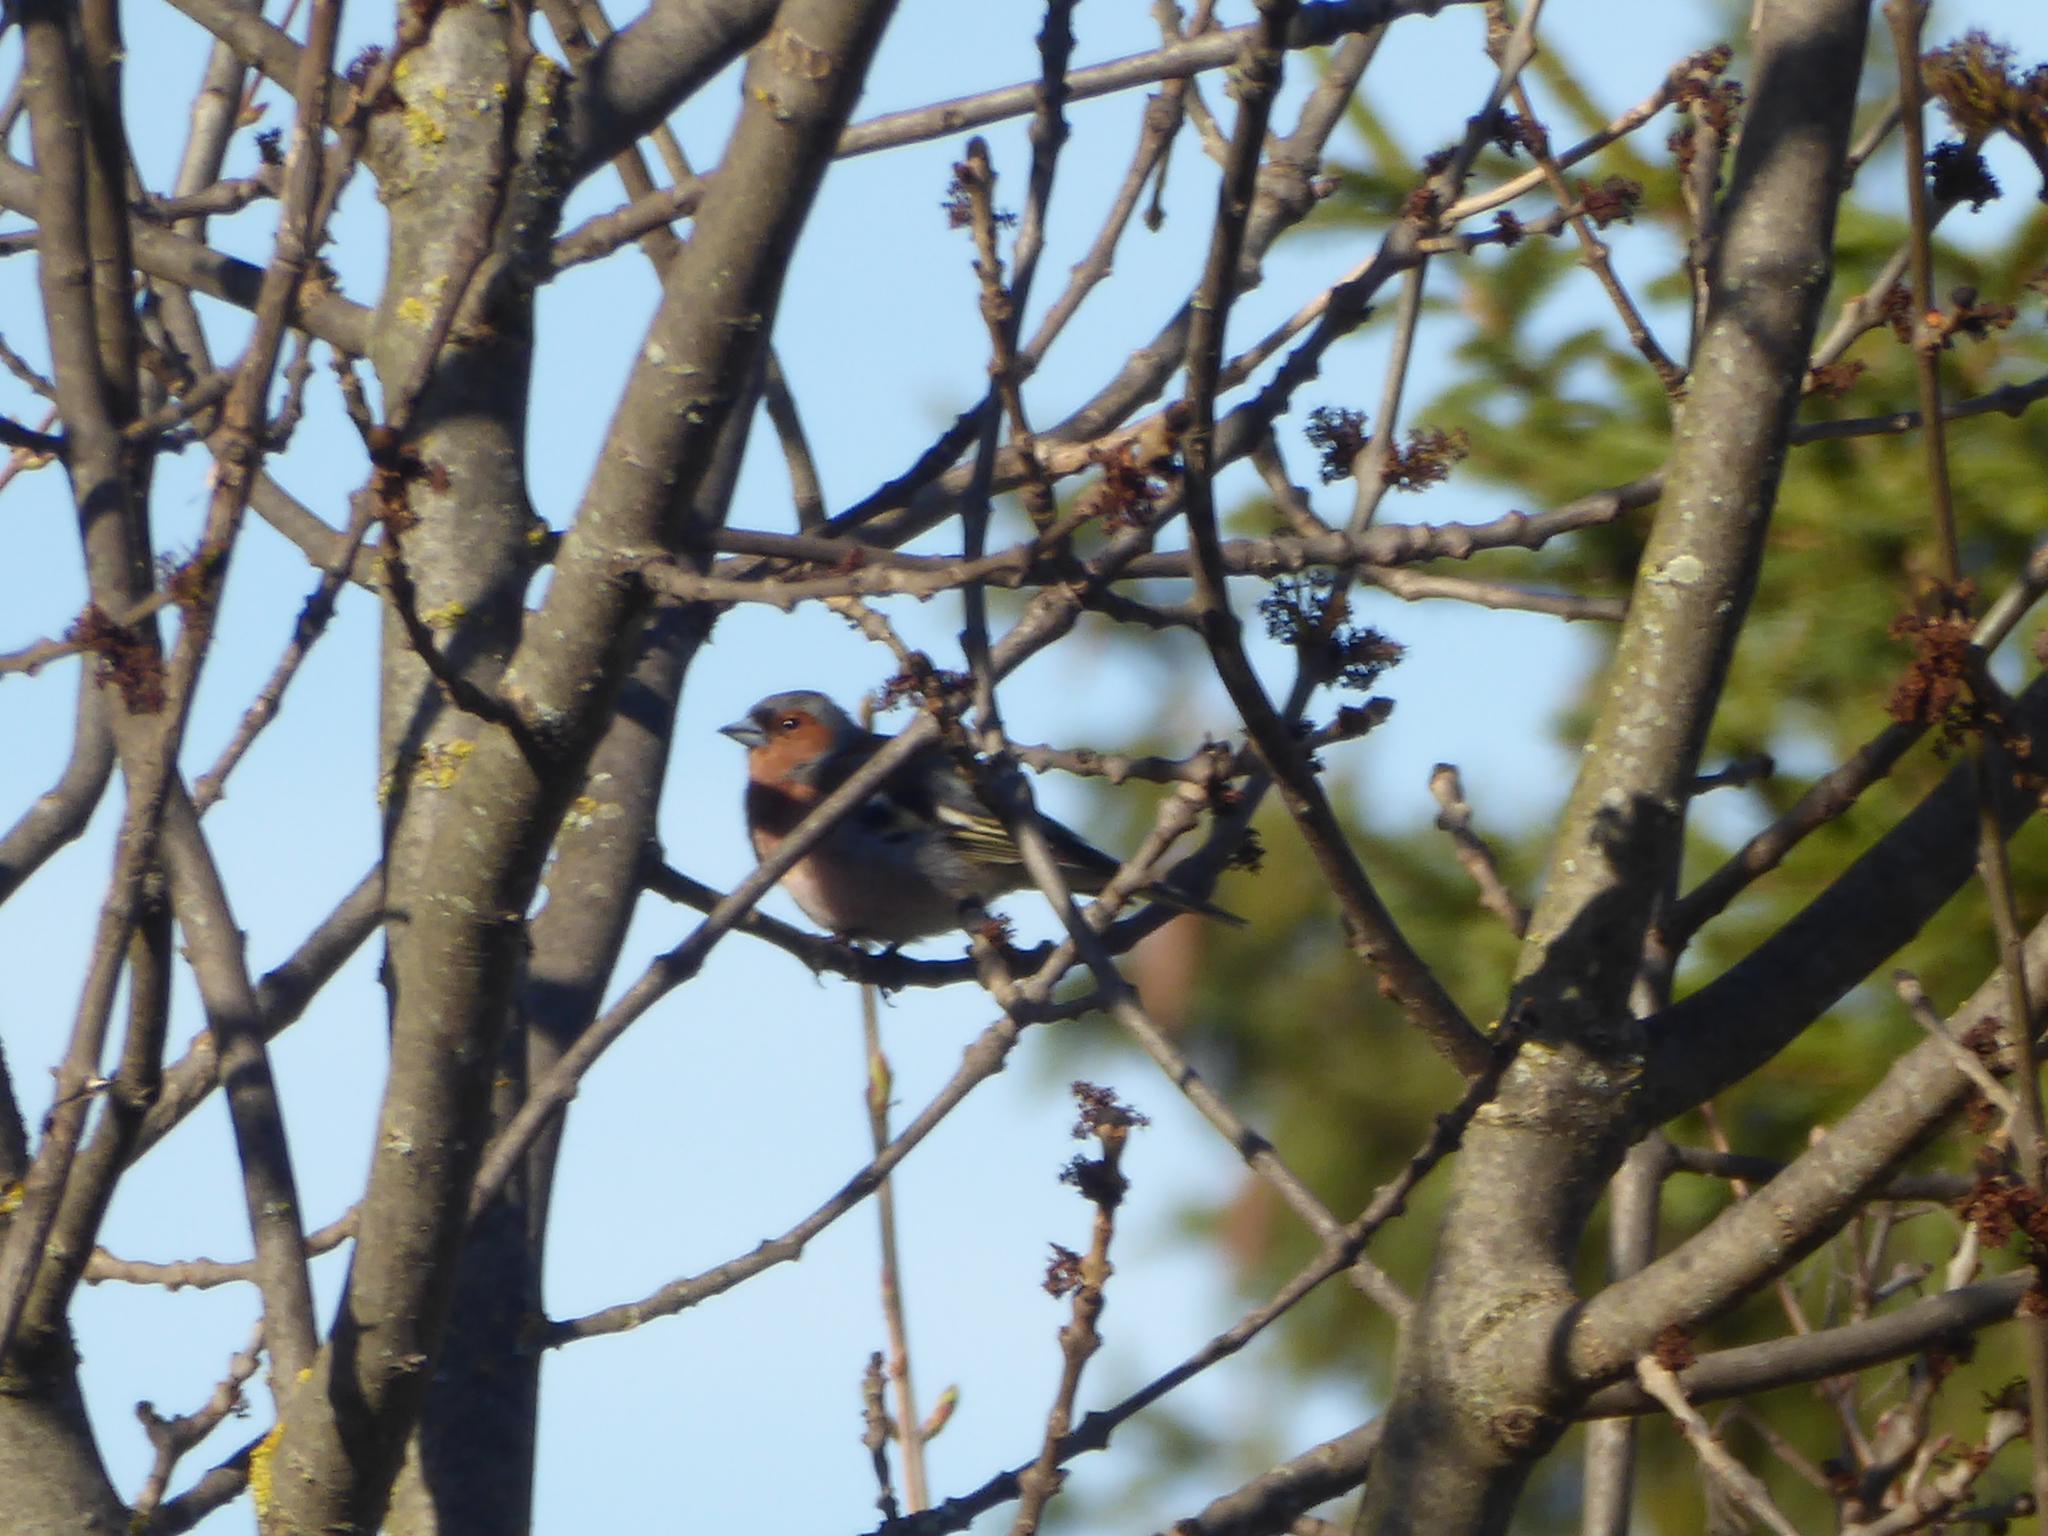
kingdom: Animalia
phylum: Chordata
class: Aves
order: Passeriformes
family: Muscicapidae
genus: Erithacus
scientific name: Erithacus rubecula
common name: European robin
